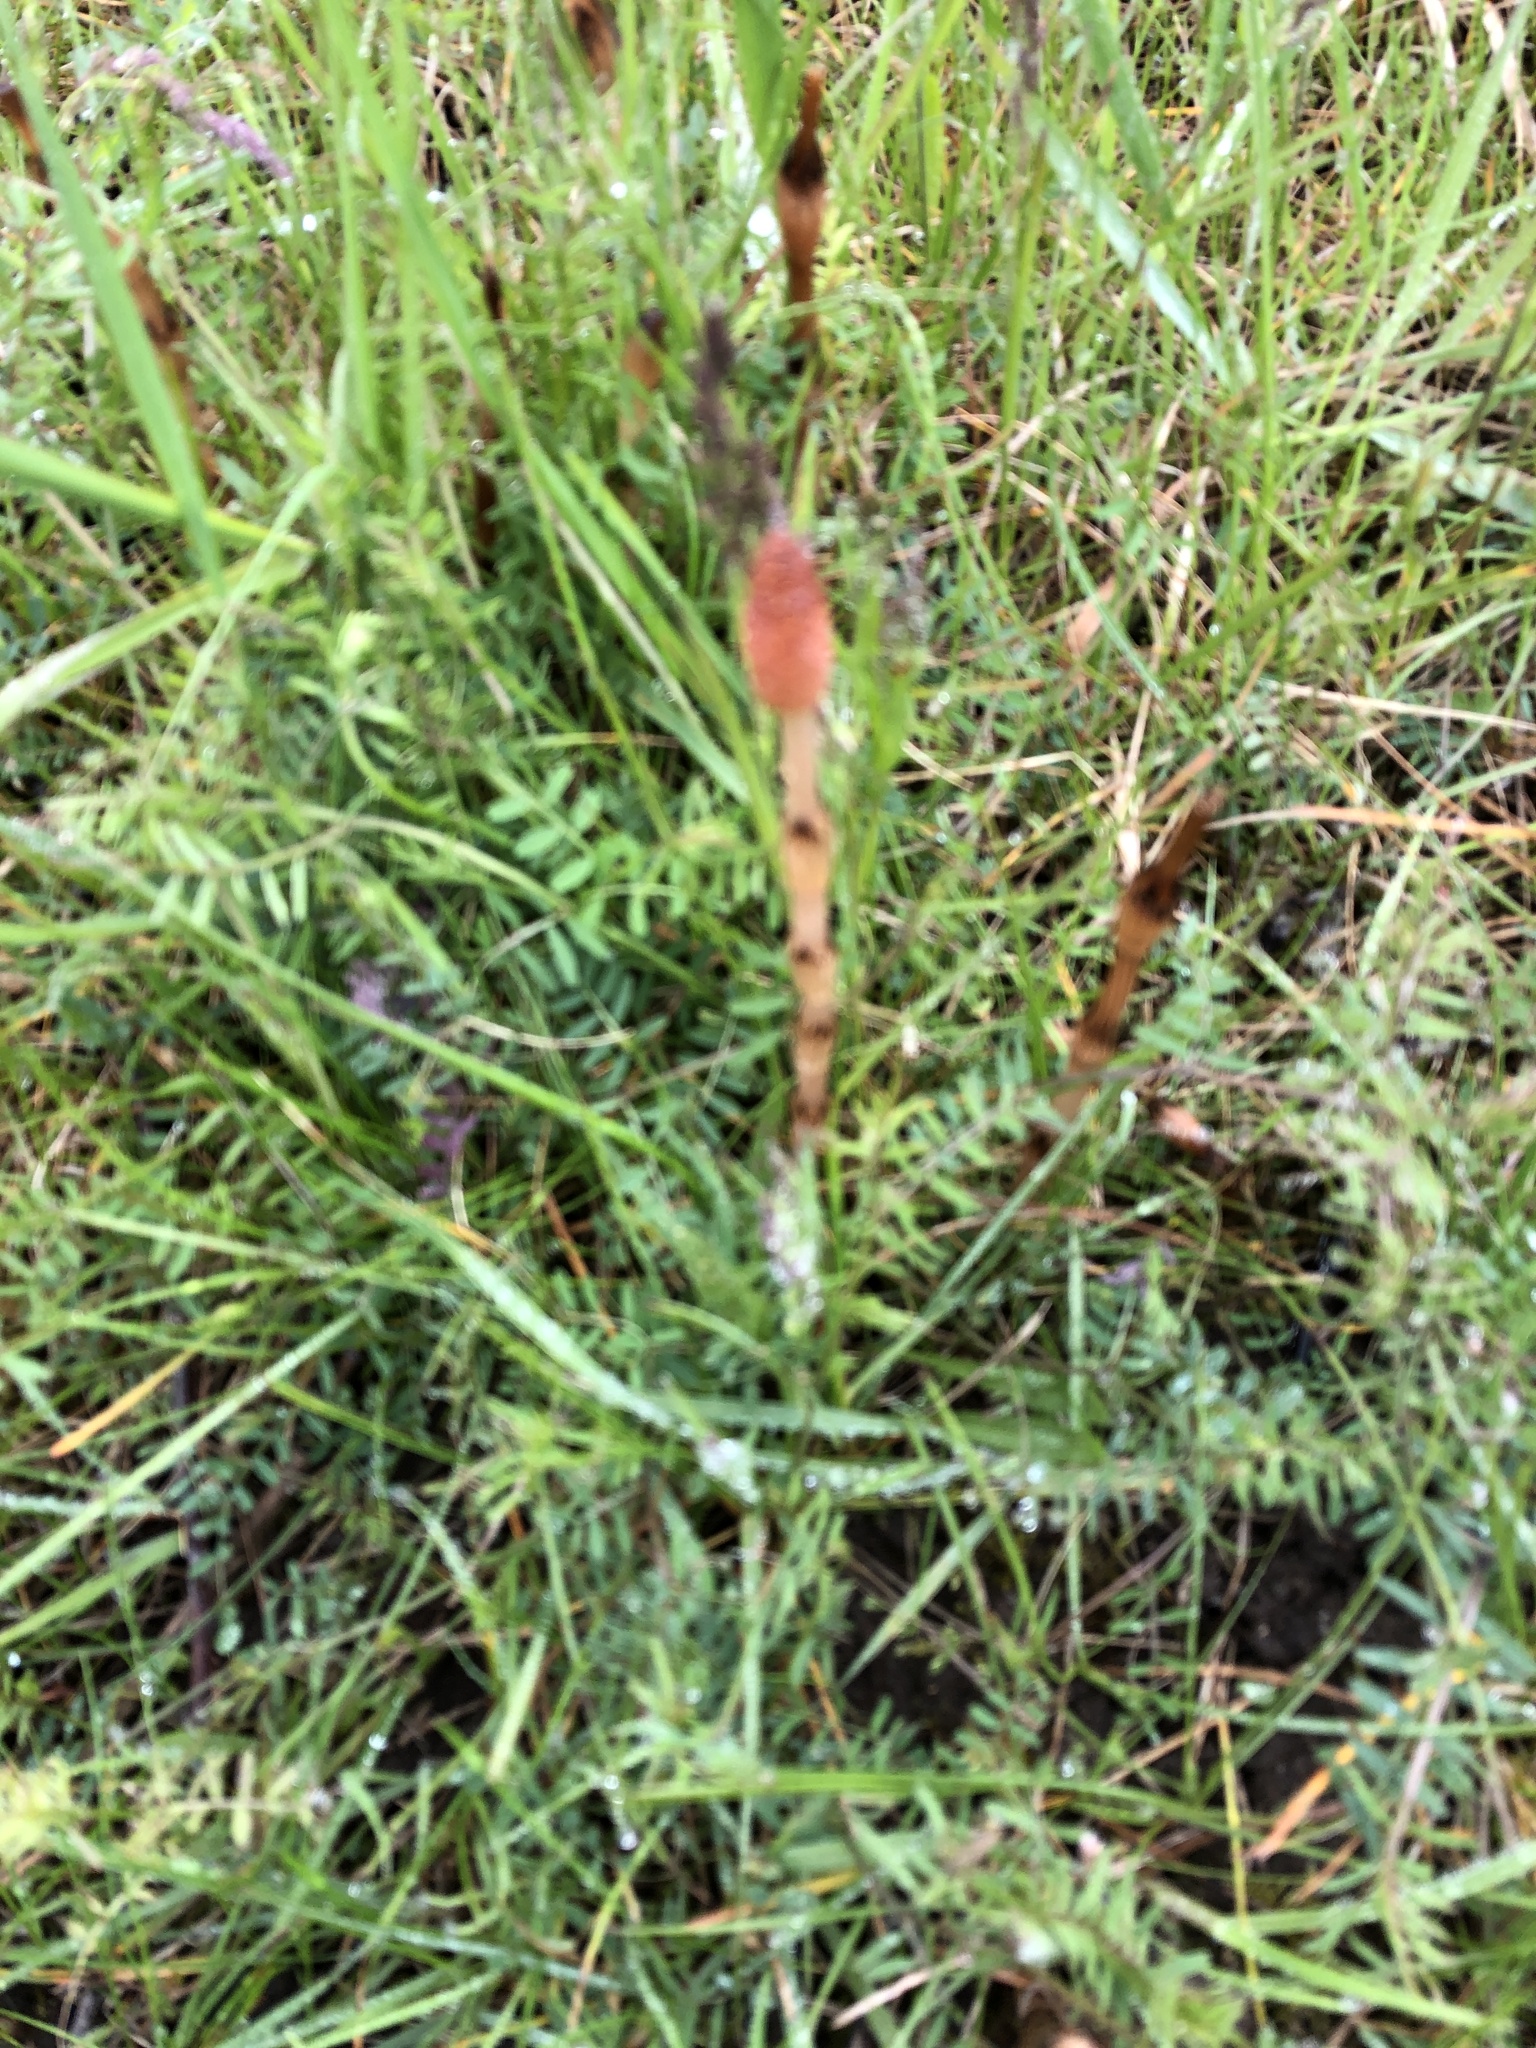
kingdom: Plantae
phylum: Tracheophyta
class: Polypodiopsida
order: Equisetales
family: Equisetaceae
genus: Equisetum
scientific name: Equisetum arvense
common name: Field horsetail
